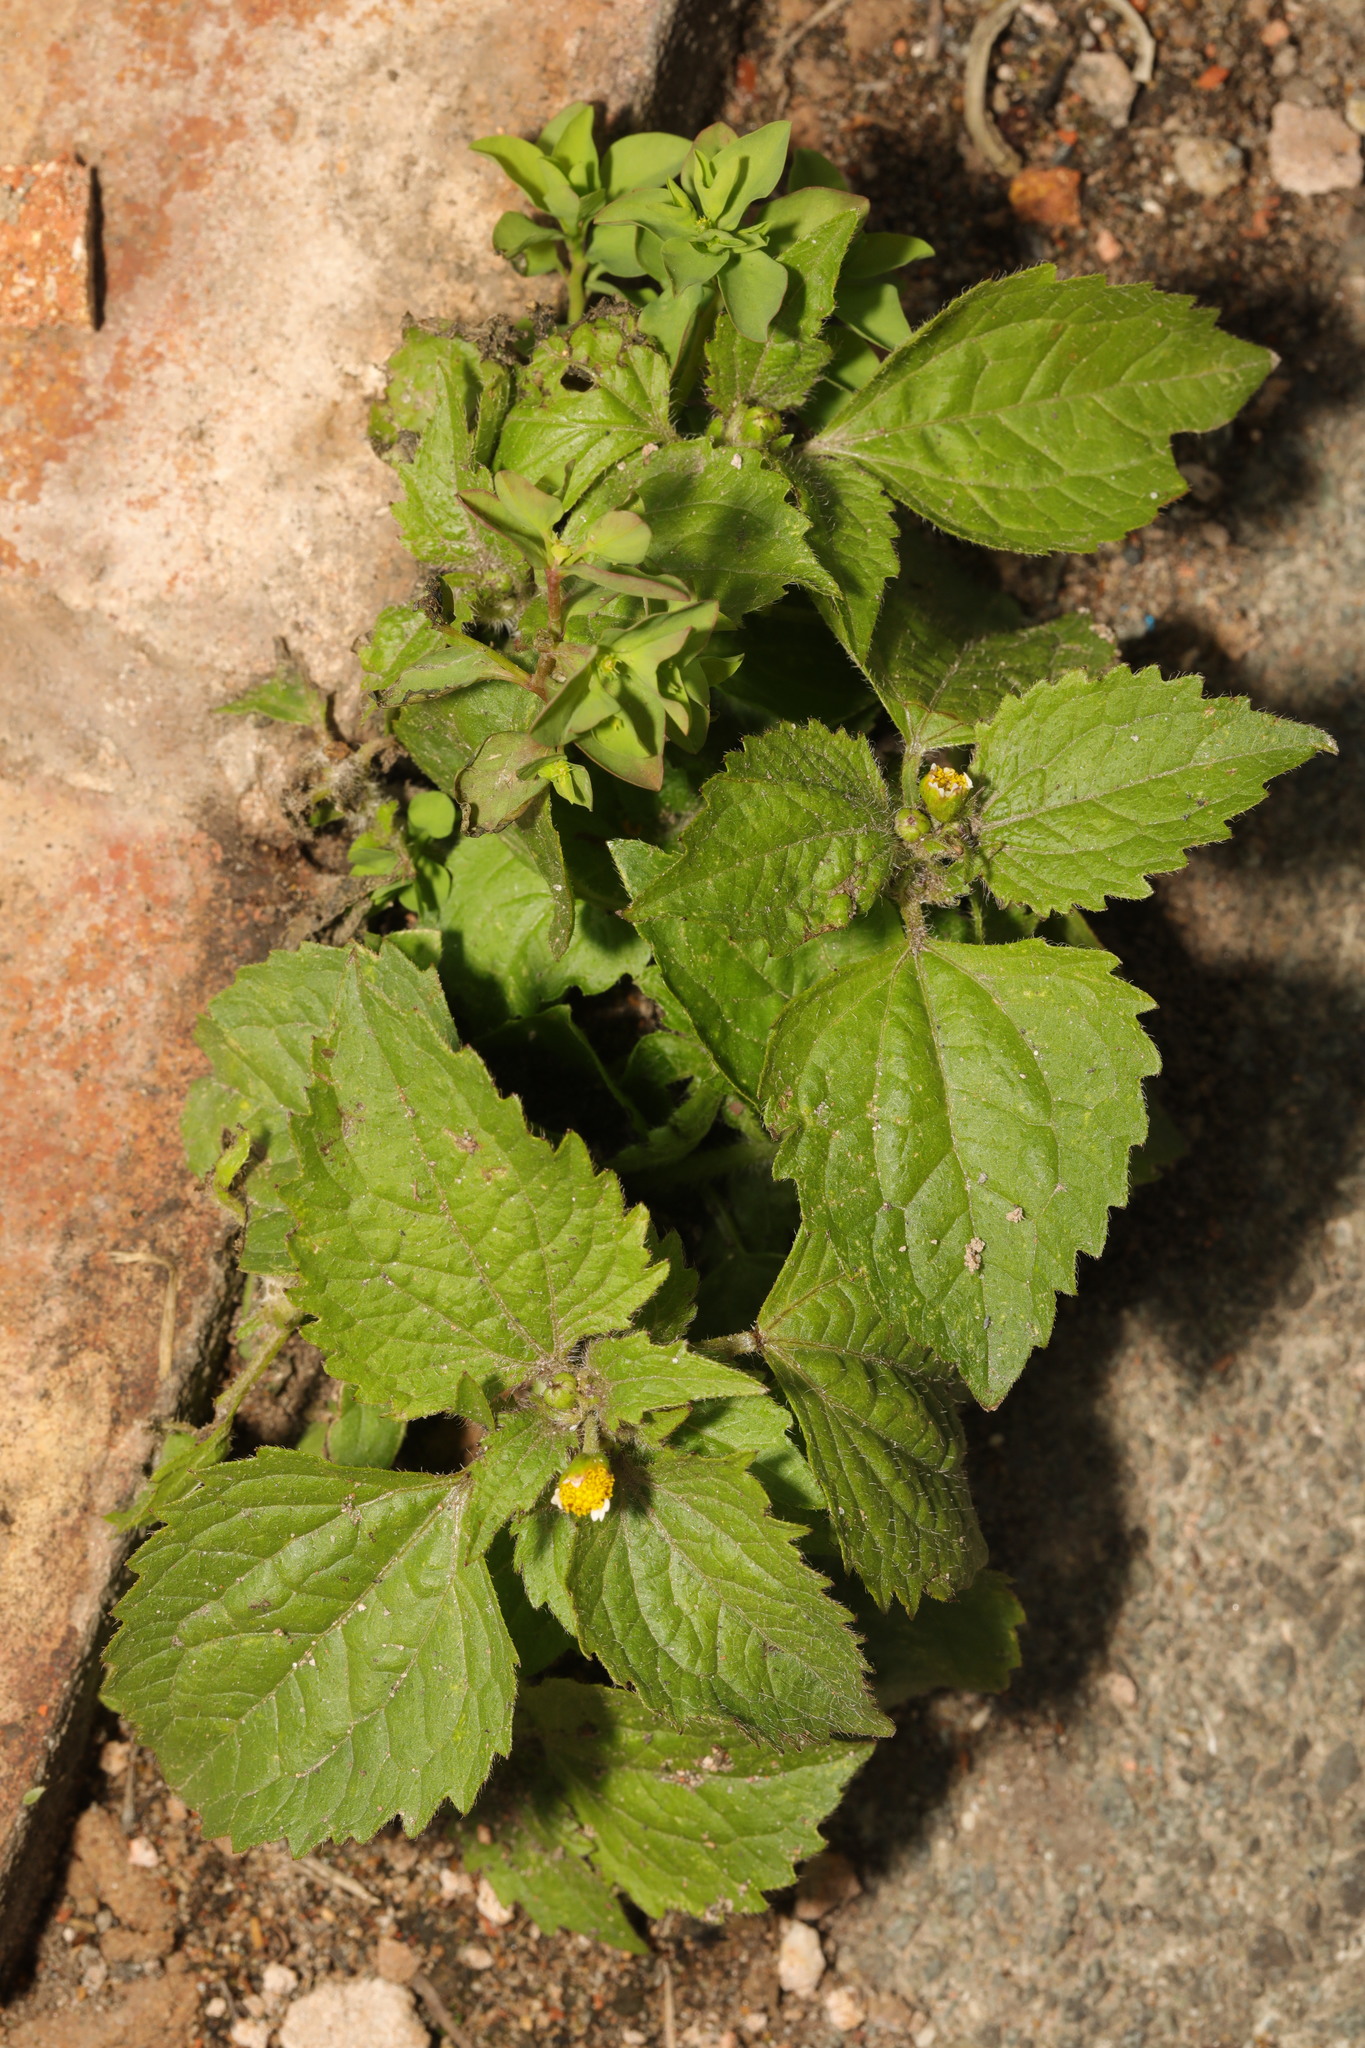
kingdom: Plantae
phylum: Tracheophyta
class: Magnoliopsida
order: Asterales
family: Asteraceae
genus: Galinsoga
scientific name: Galinsoga quadriradiata
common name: Shaggy soldier
